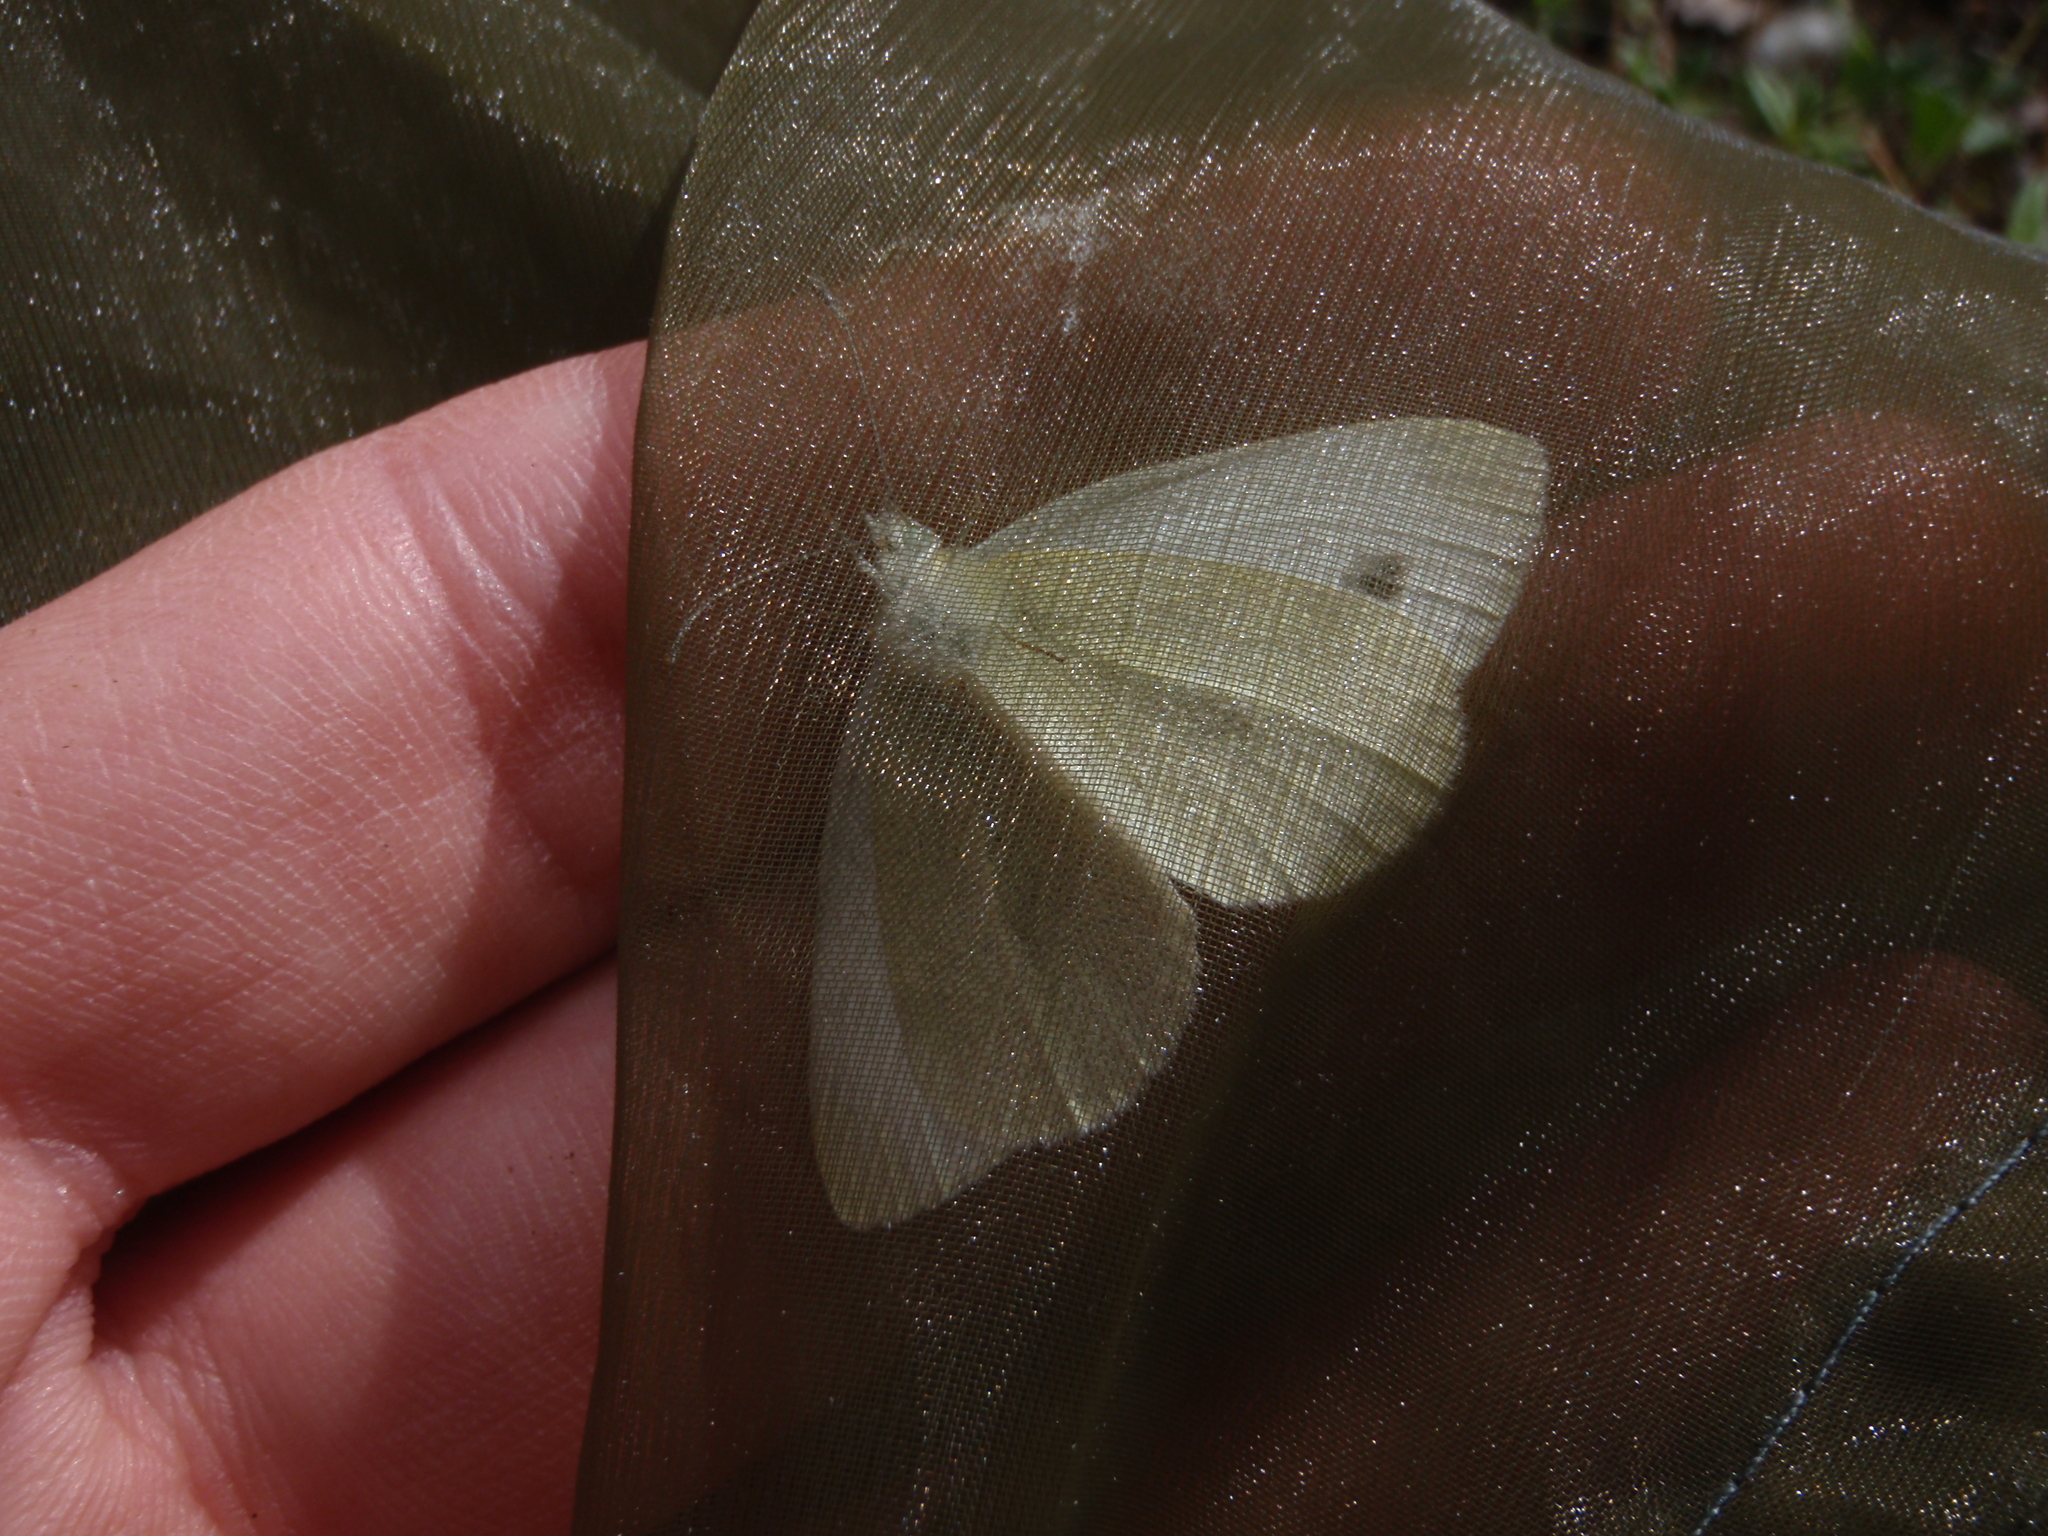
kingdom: Animalia
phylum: Arthropoda
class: Insecta
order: Lepidoptera
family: Pieridae
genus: Pieris
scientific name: Pieris mannii
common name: Southern small white
